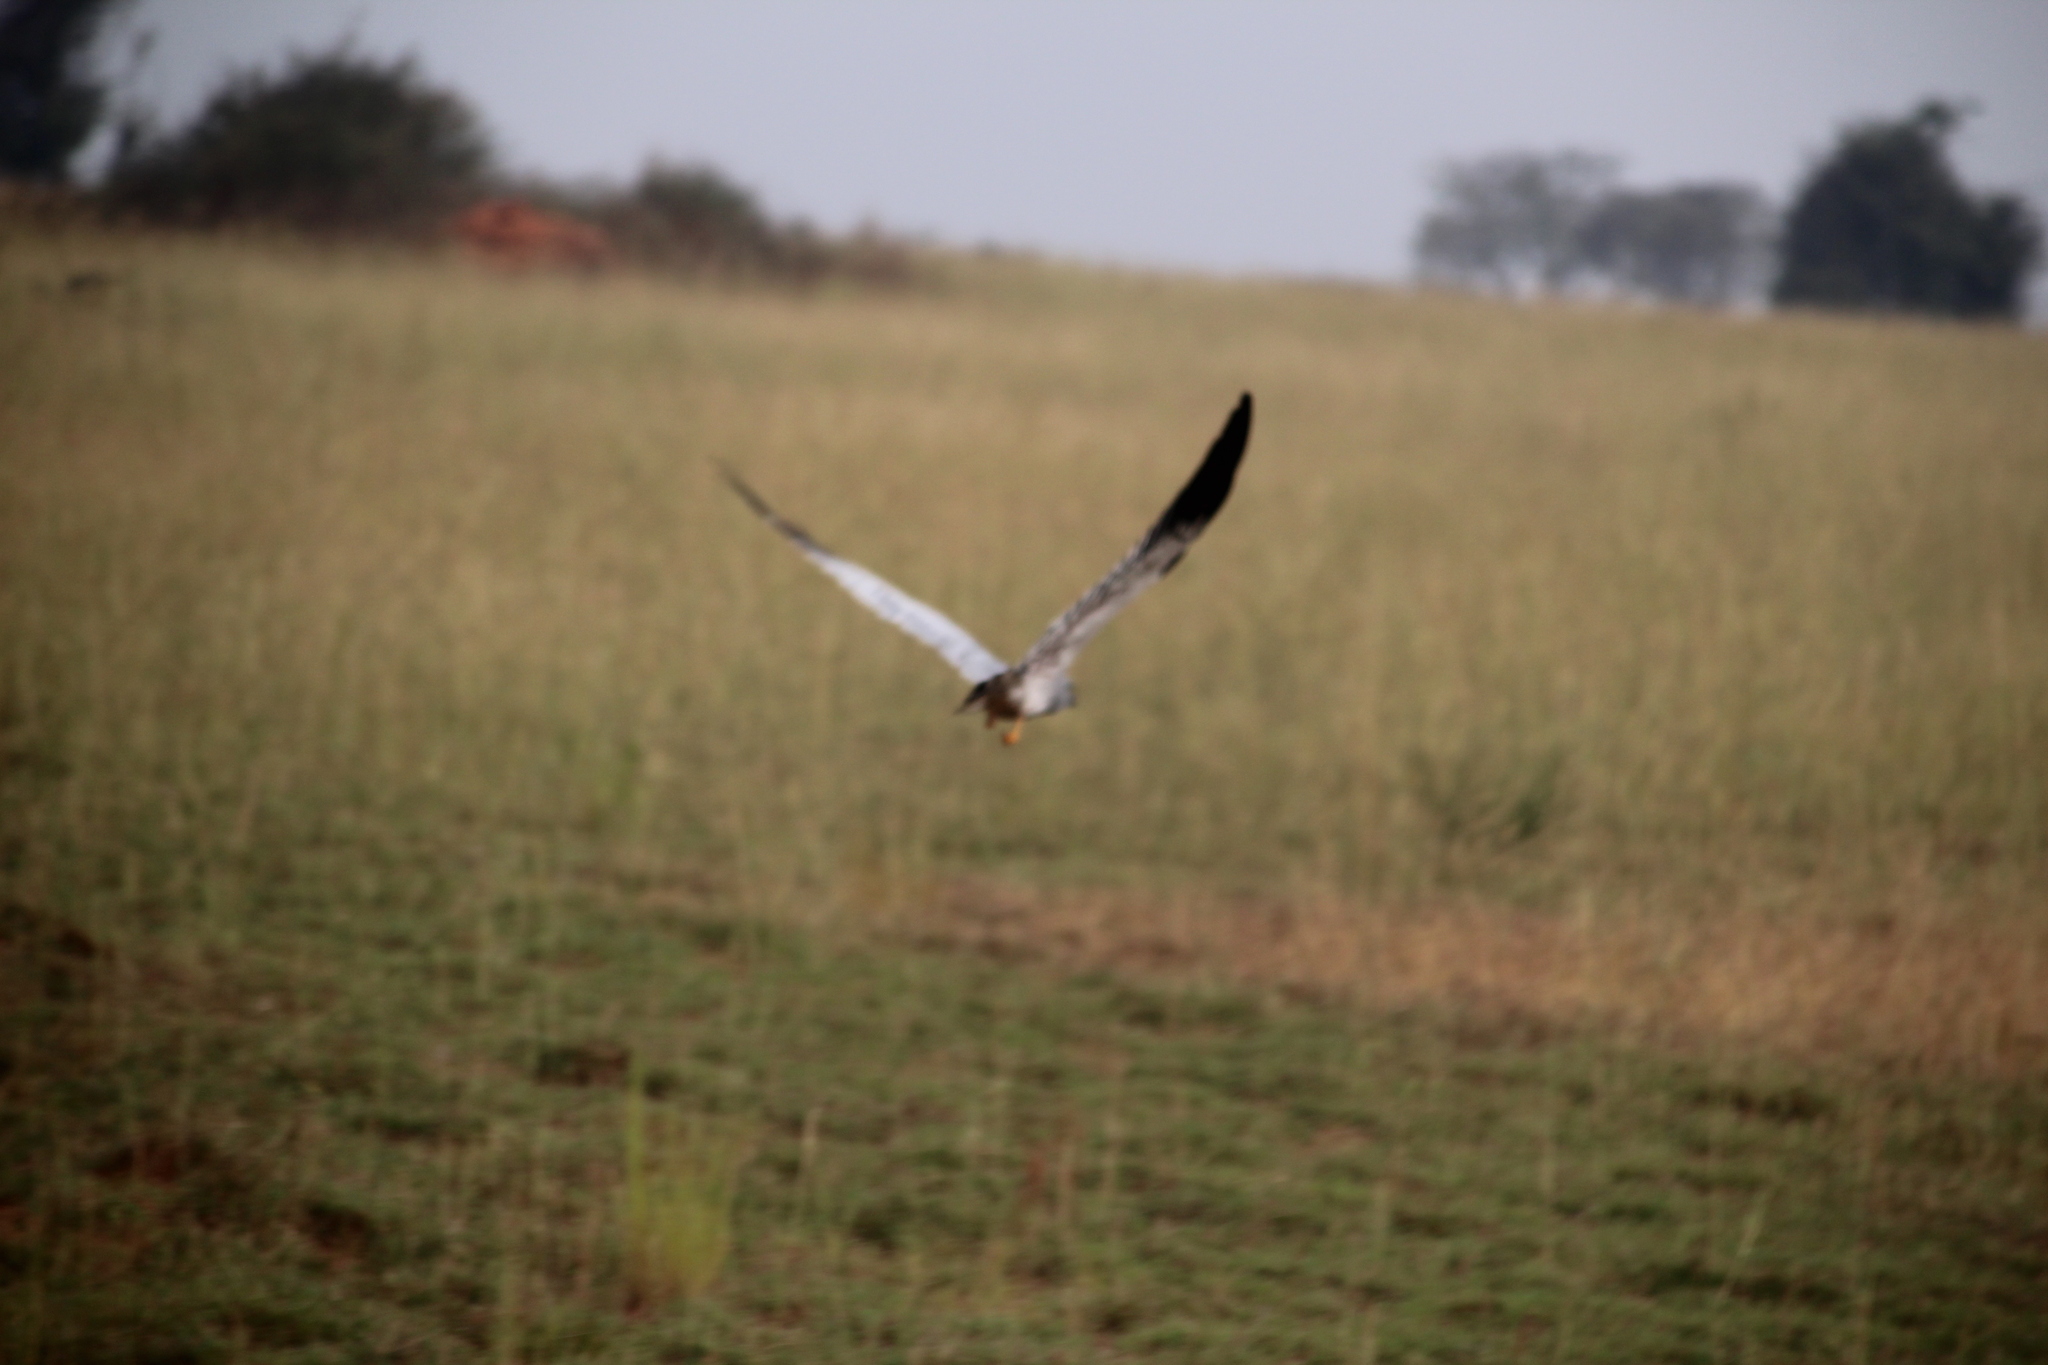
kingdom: Animalia
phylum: Chordata
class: Aves
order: Accipitriformes
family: Accipitridae
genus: Circus
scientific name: Circus pygargus
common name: Montagu's harrier
